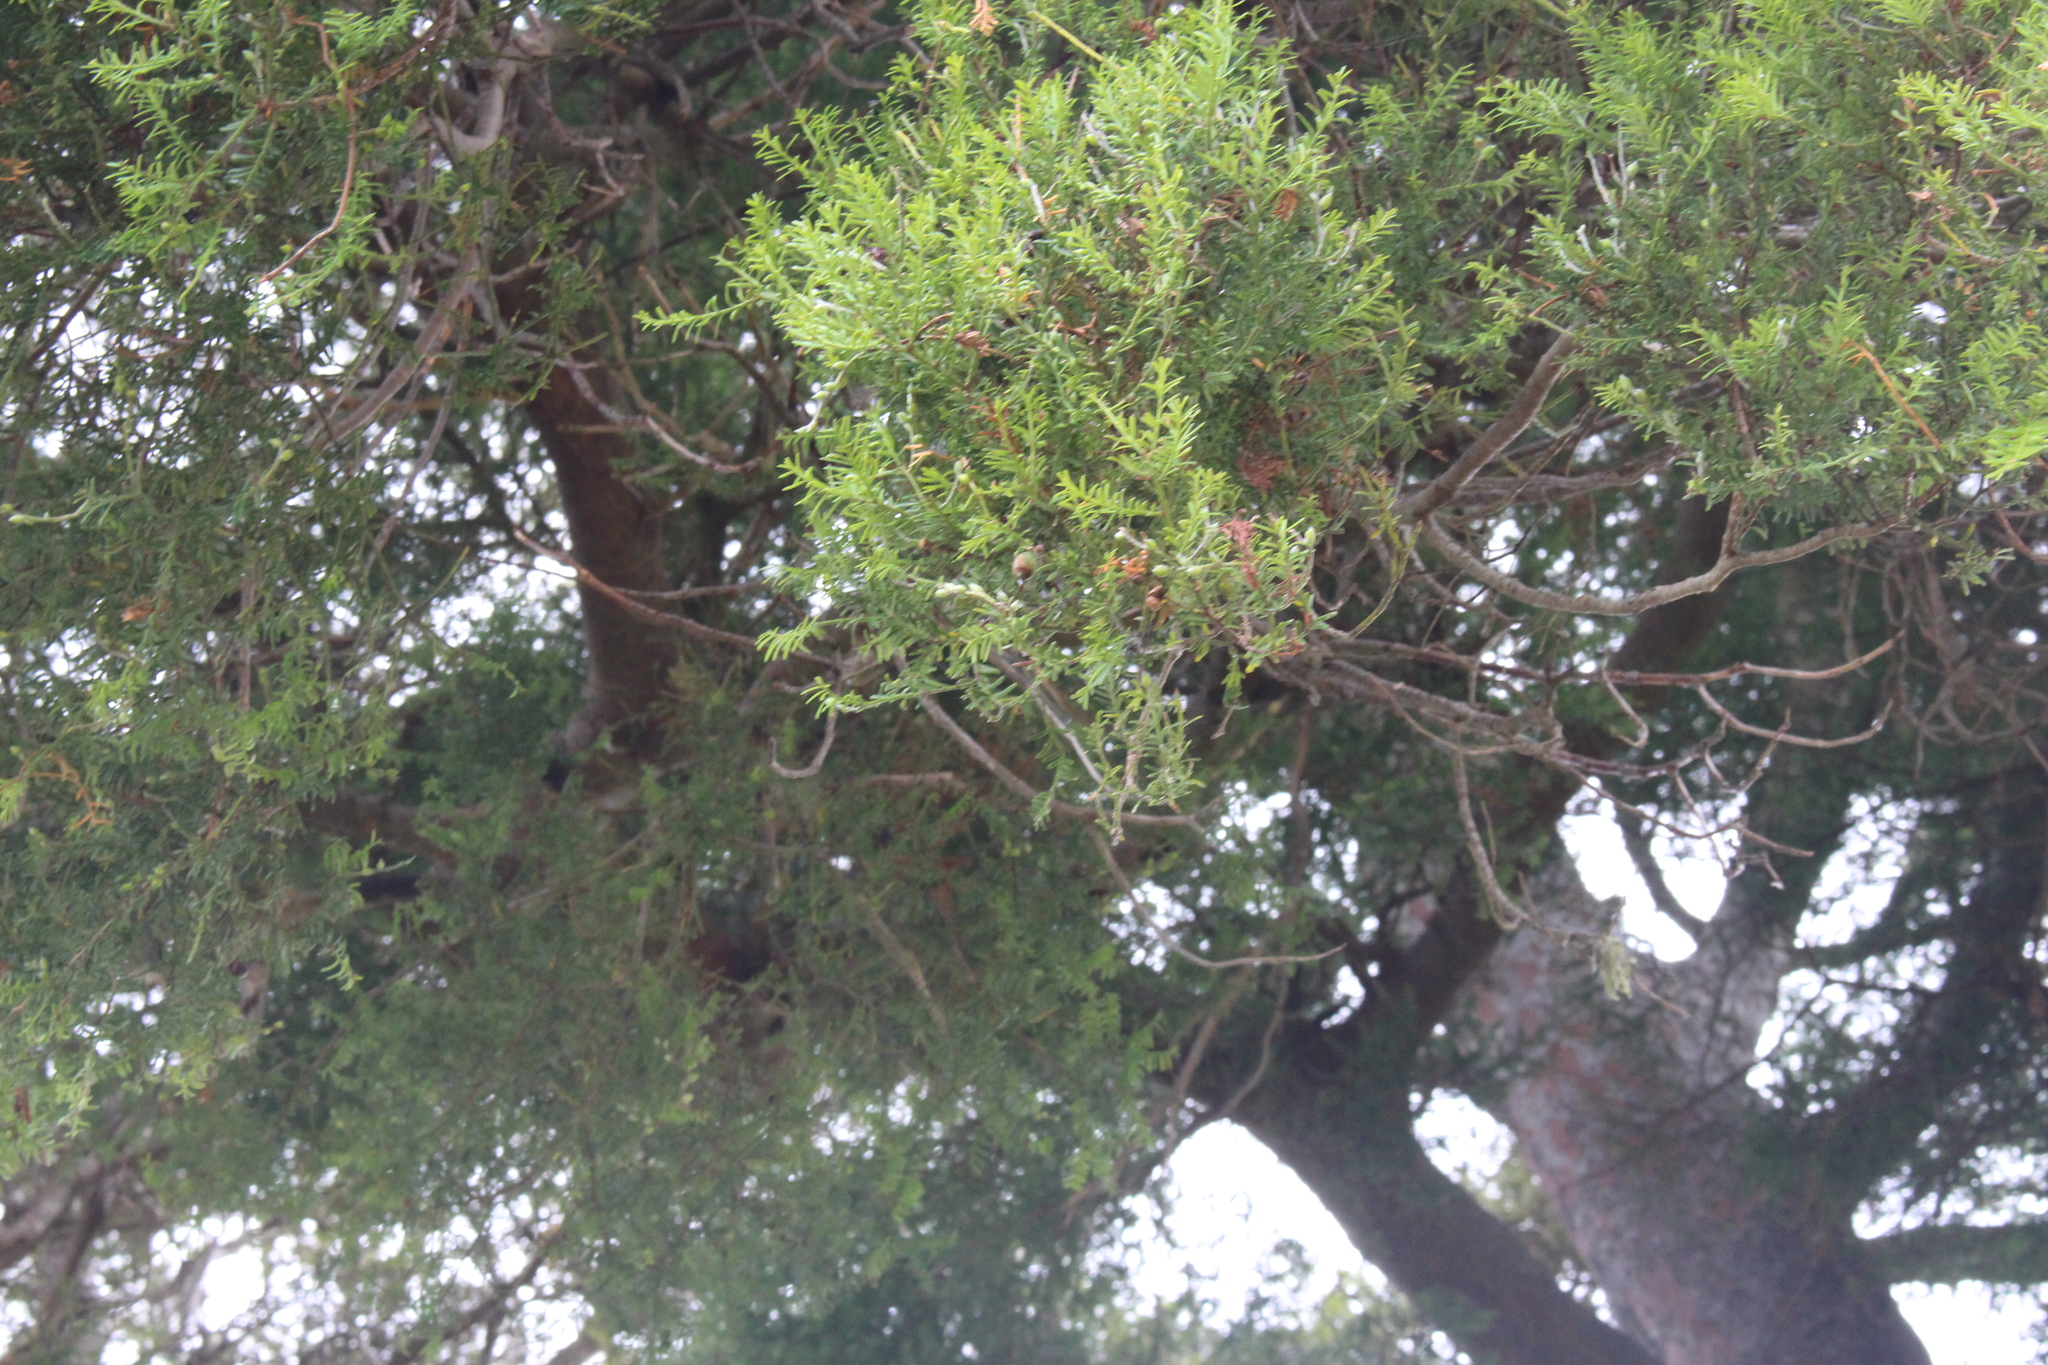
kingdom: Plantae
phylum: Tracheophyta
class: Pinopsida
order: Pinales
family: Podocarpaceae
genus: Podocarpus
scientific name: Podocarpus totara
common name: Totara
